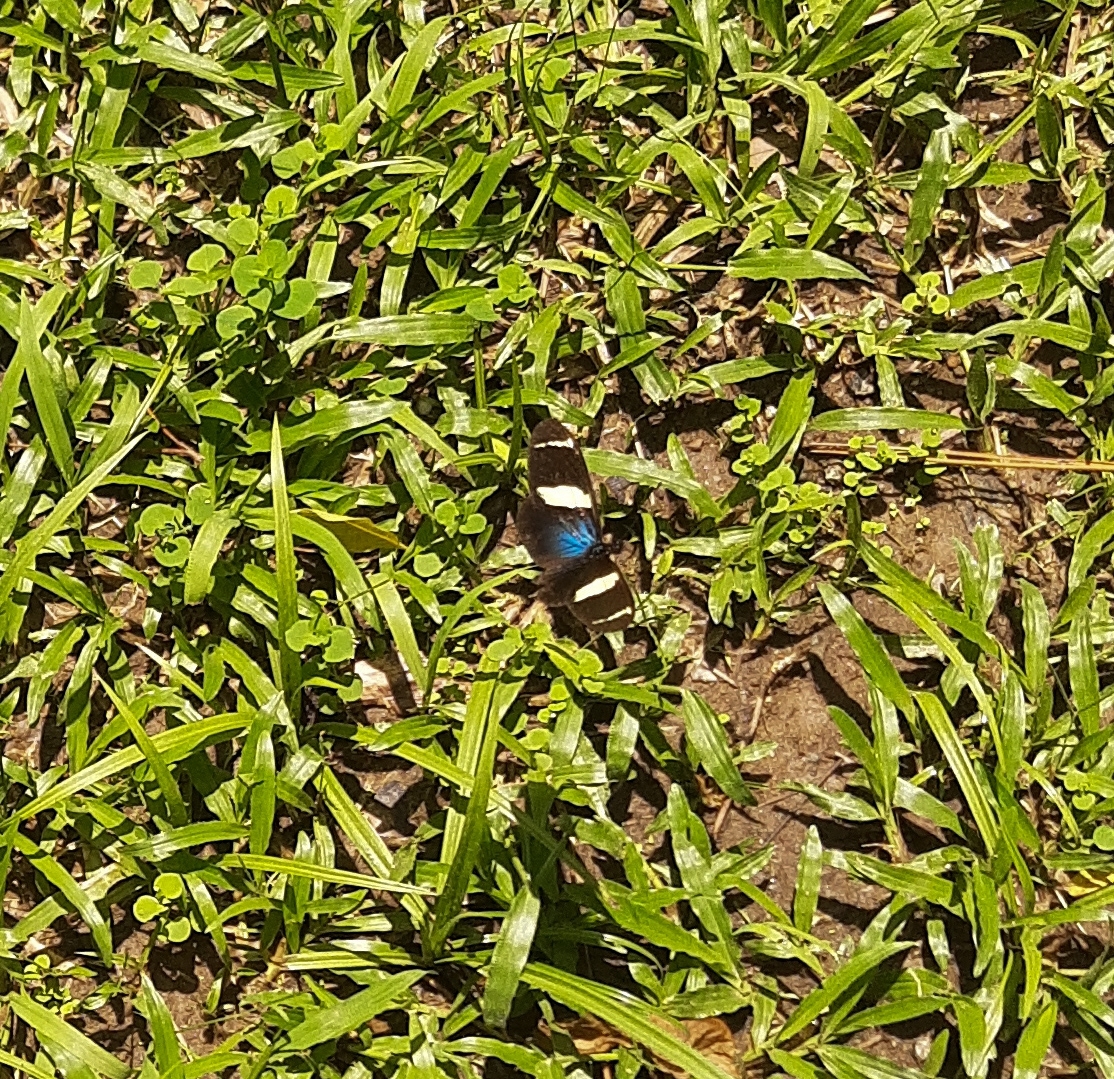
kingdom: Animalia
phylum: Arthropoda
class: Insecta
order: Lepidoptera
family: Nymphalidae
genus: Heliconius
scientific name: Heliconius sara
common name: Sara longwing
